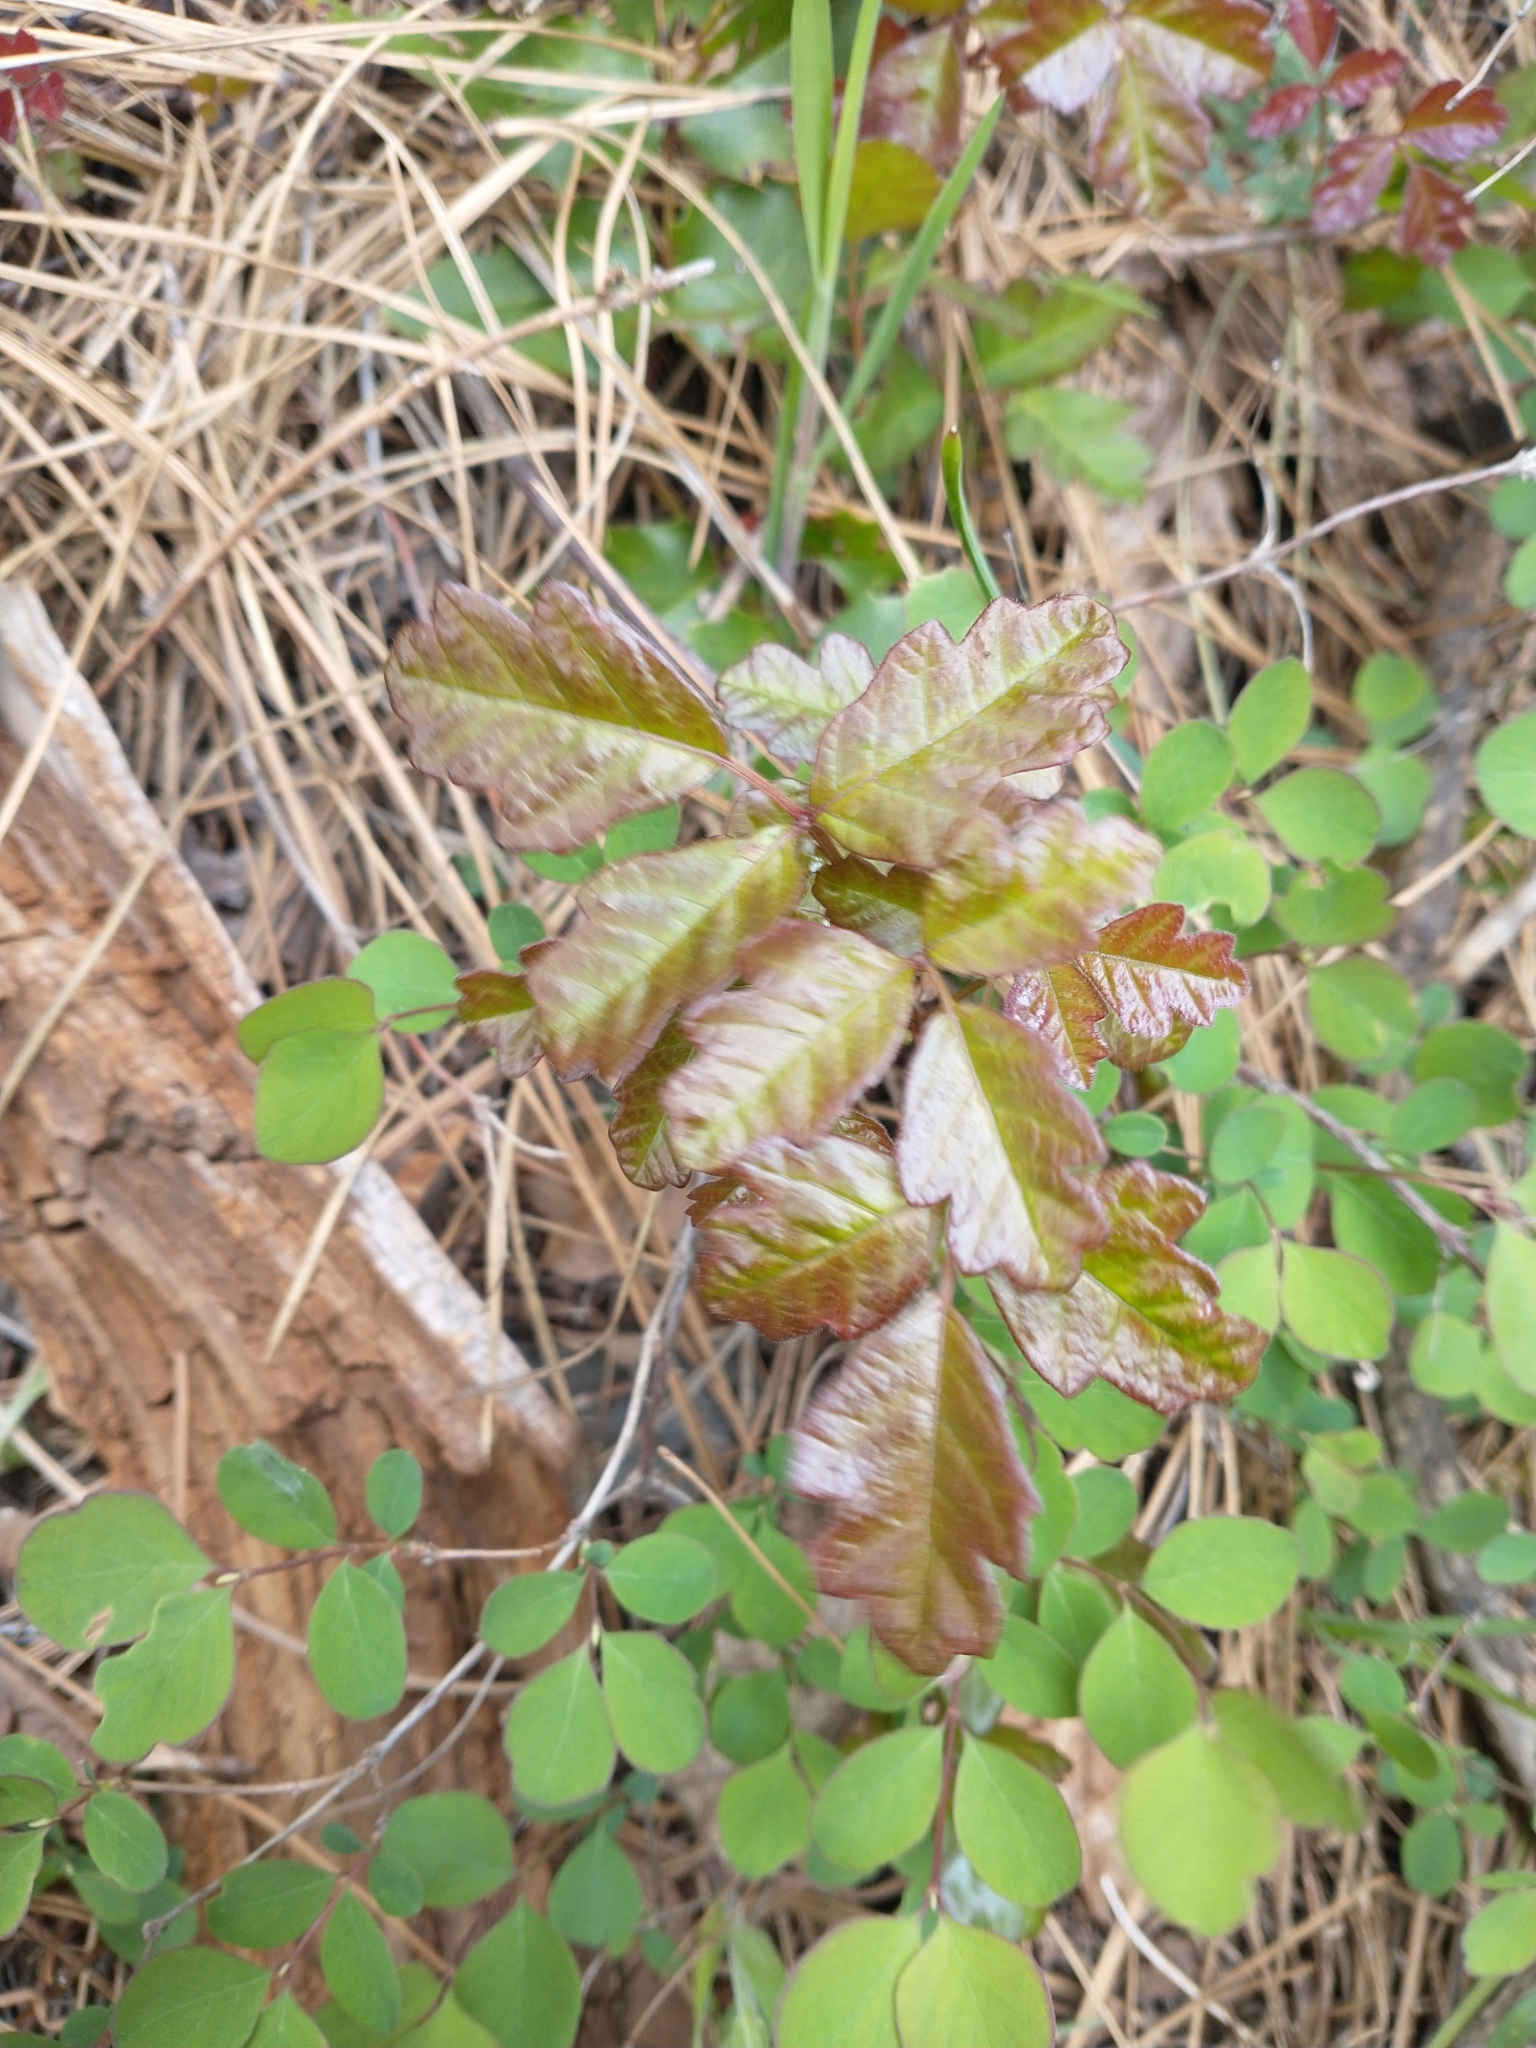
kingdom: Plantae
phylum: Tracheophyta
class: Magnoliopsida
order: Sapindales
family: Anacardiaceae
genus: Toxicodendron
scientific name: Toxicodendron diversilobum
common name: Pacific poison-oak
